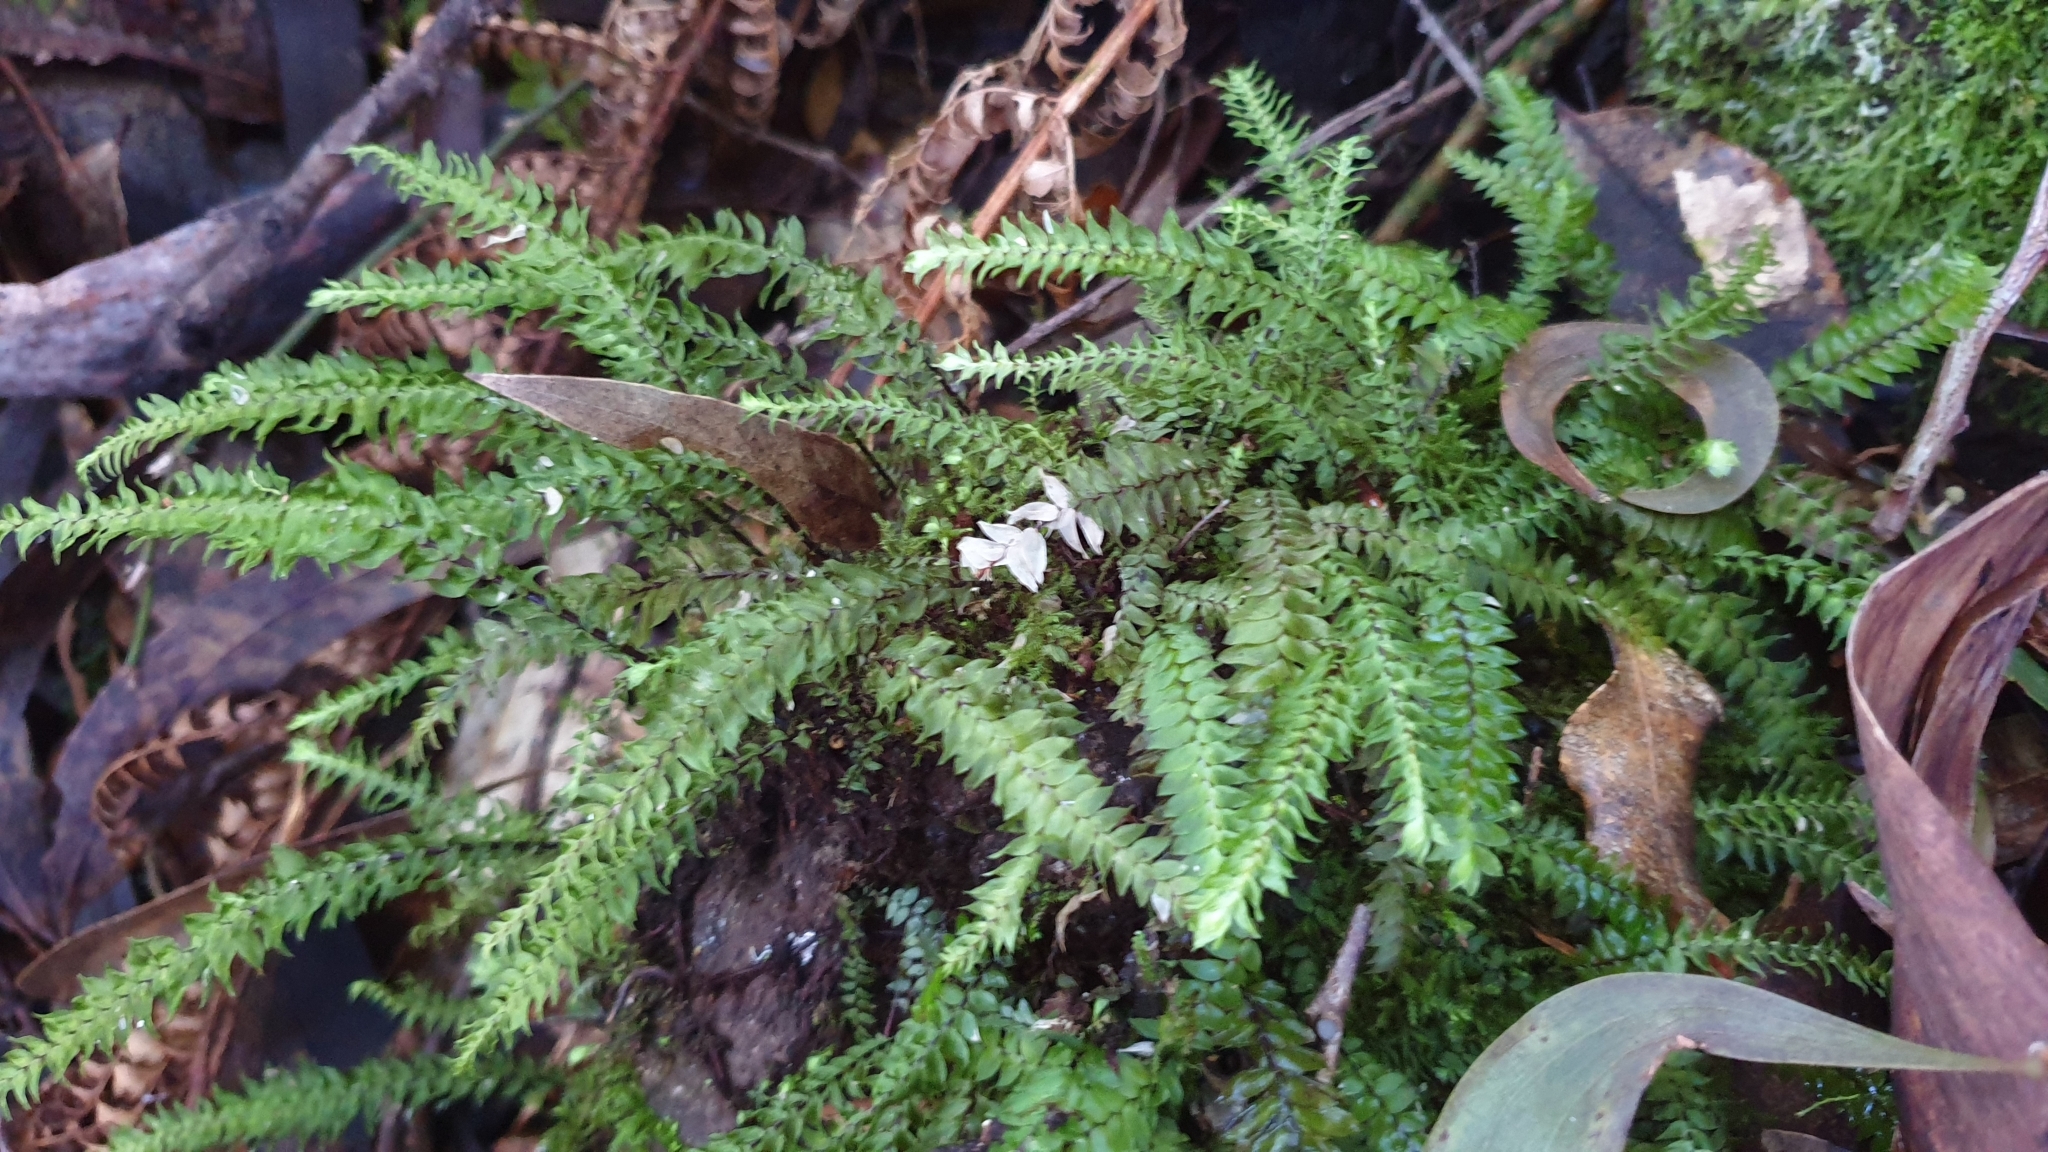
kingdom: Plantae
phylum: Bryophyta
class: Bryopsida
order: Hypopterygiales
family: Hypopterygiaceae
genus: Cyathophorum
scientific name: Cyathophorum bulbosum
